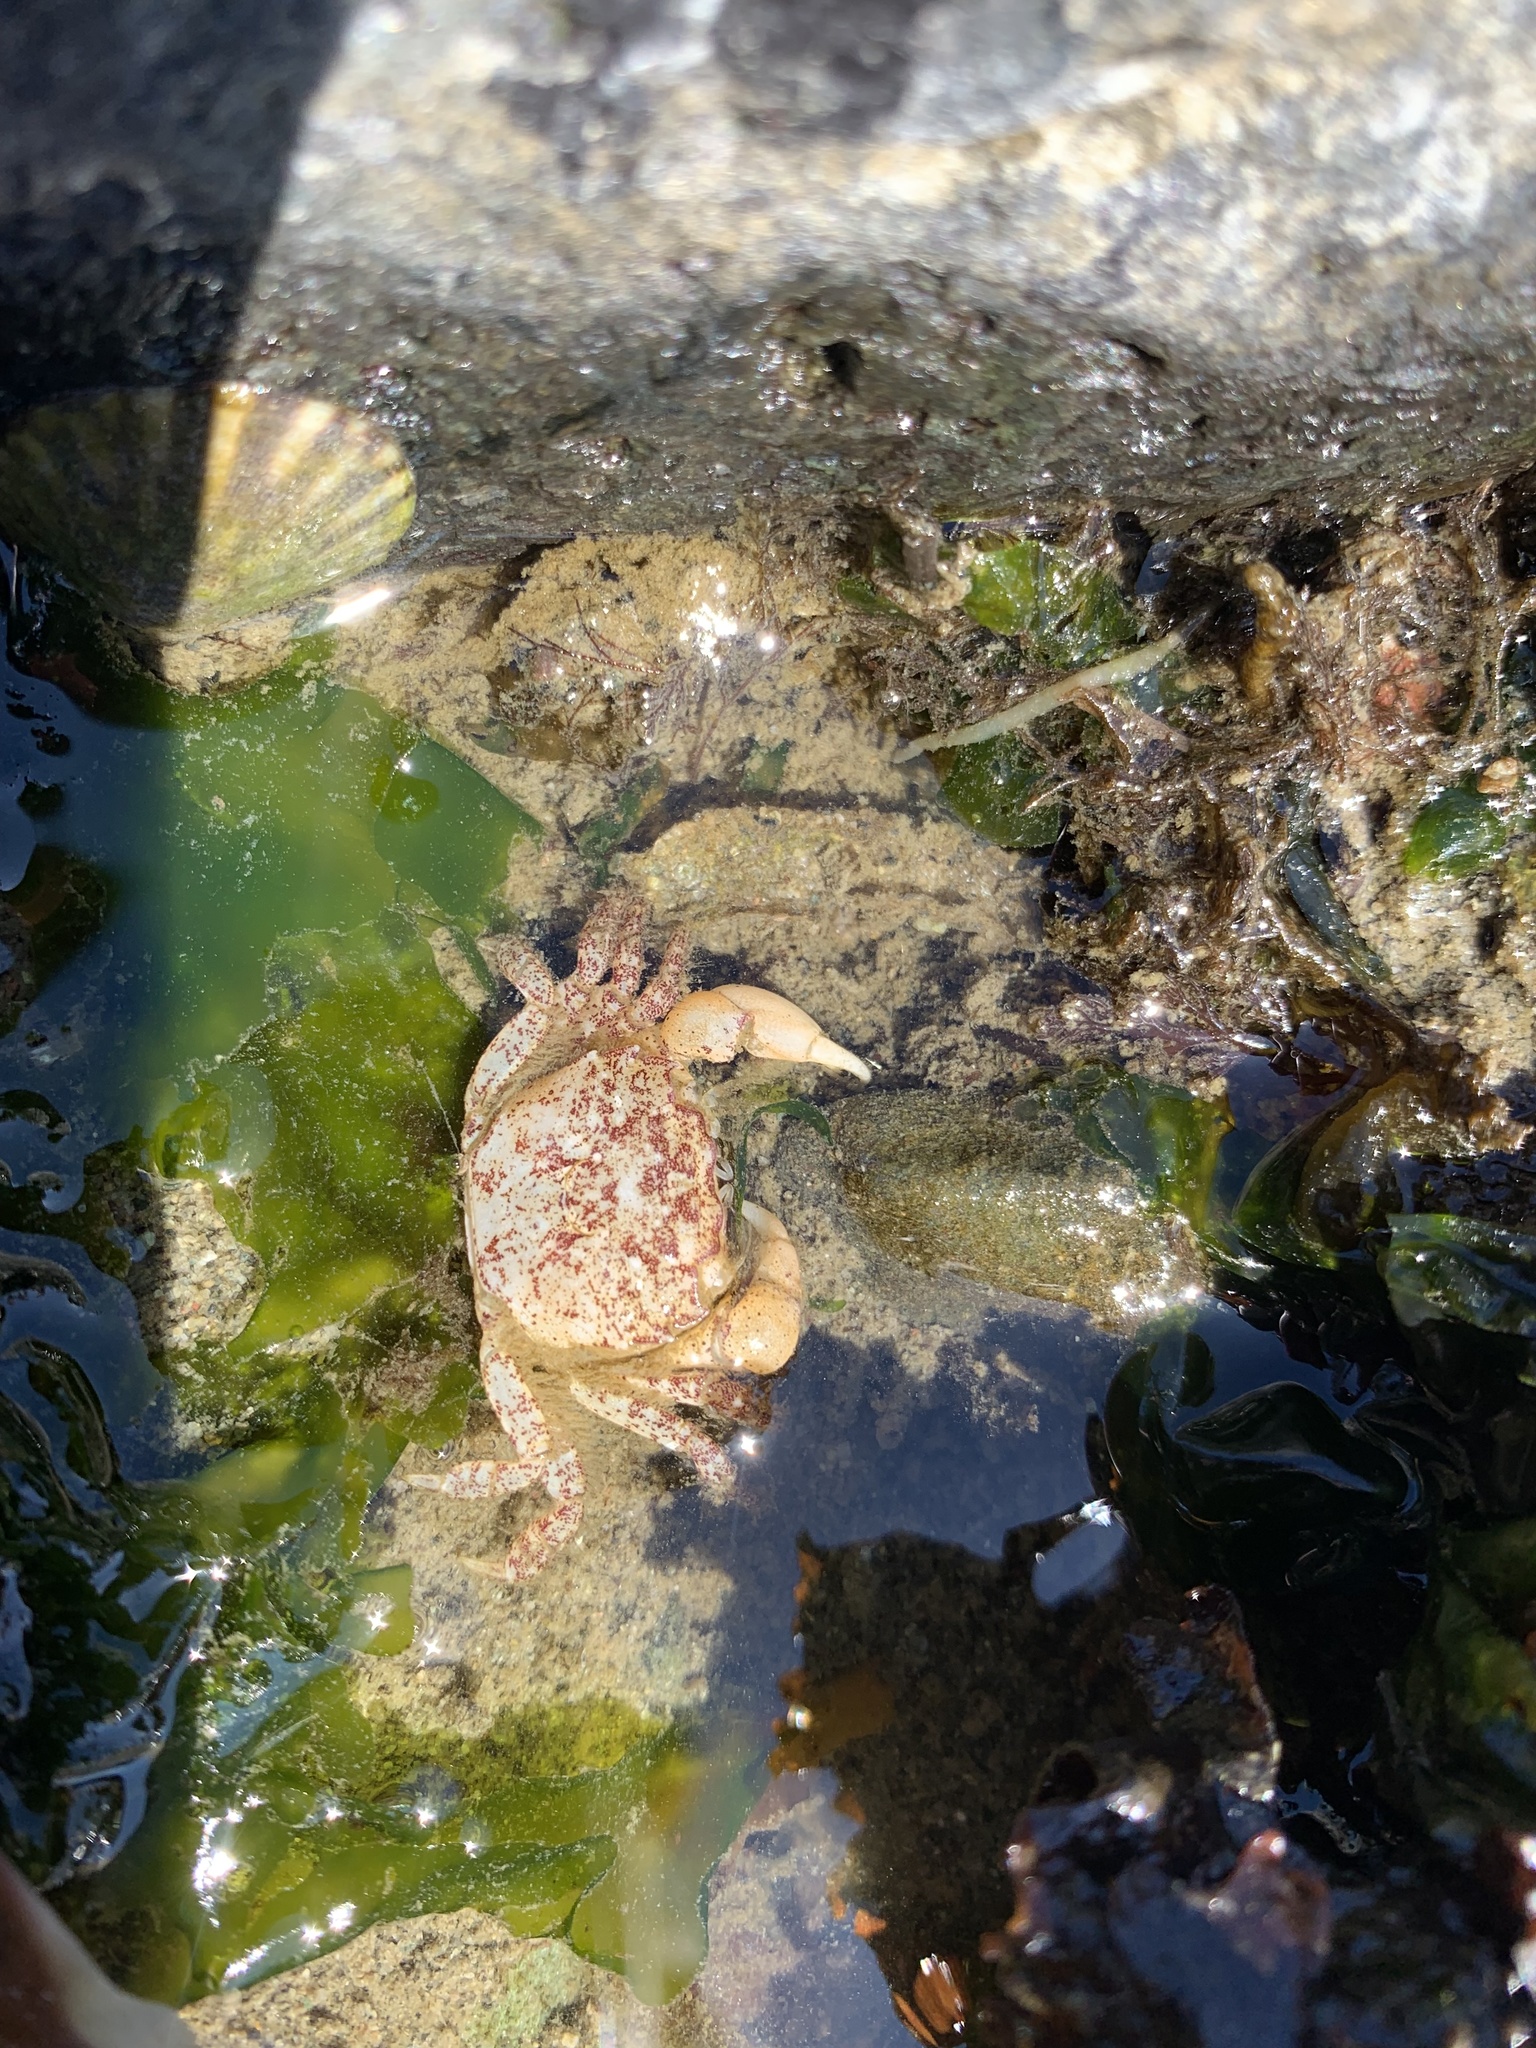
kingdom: Animalia
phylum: Arthropoda
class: Malacostraca
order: Decapoda
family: Varunidae
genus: Hemigrapsus
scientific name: Hemigrapsus oregonensis
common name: Yellow shore crab
